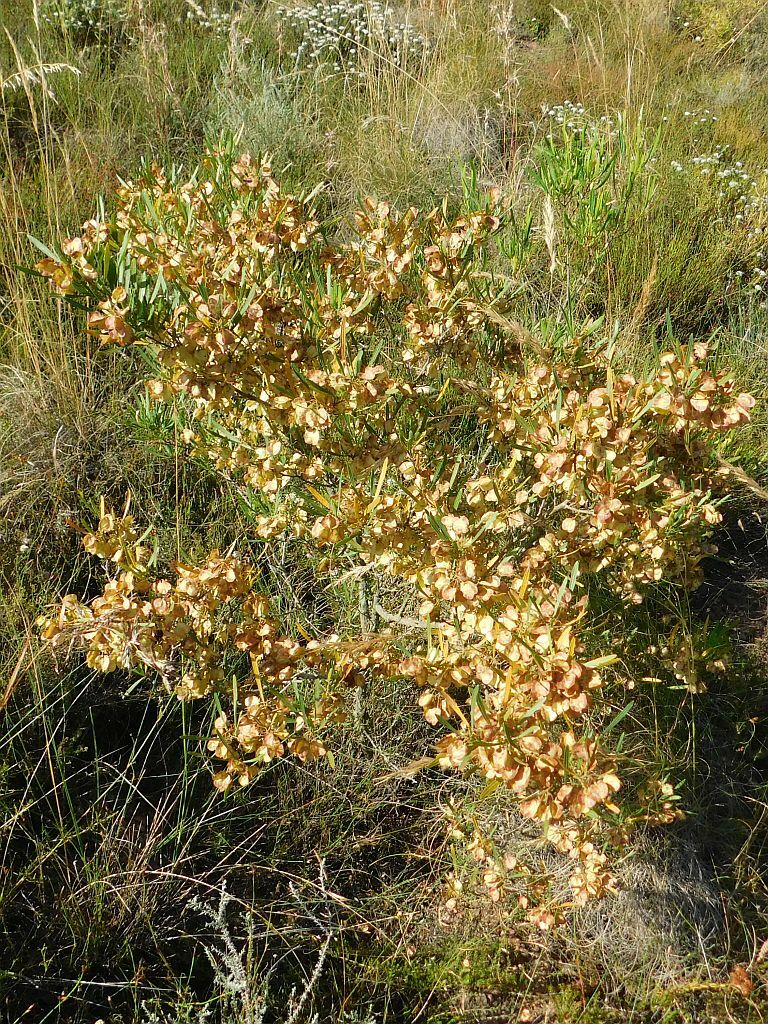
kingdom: Plantae
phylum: Tracheophyta
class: Magnoliopsida
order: Sapindales
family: Sapindaceae
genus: Dodonaea
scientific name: Dodonaea viscosa
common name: Hopbush
